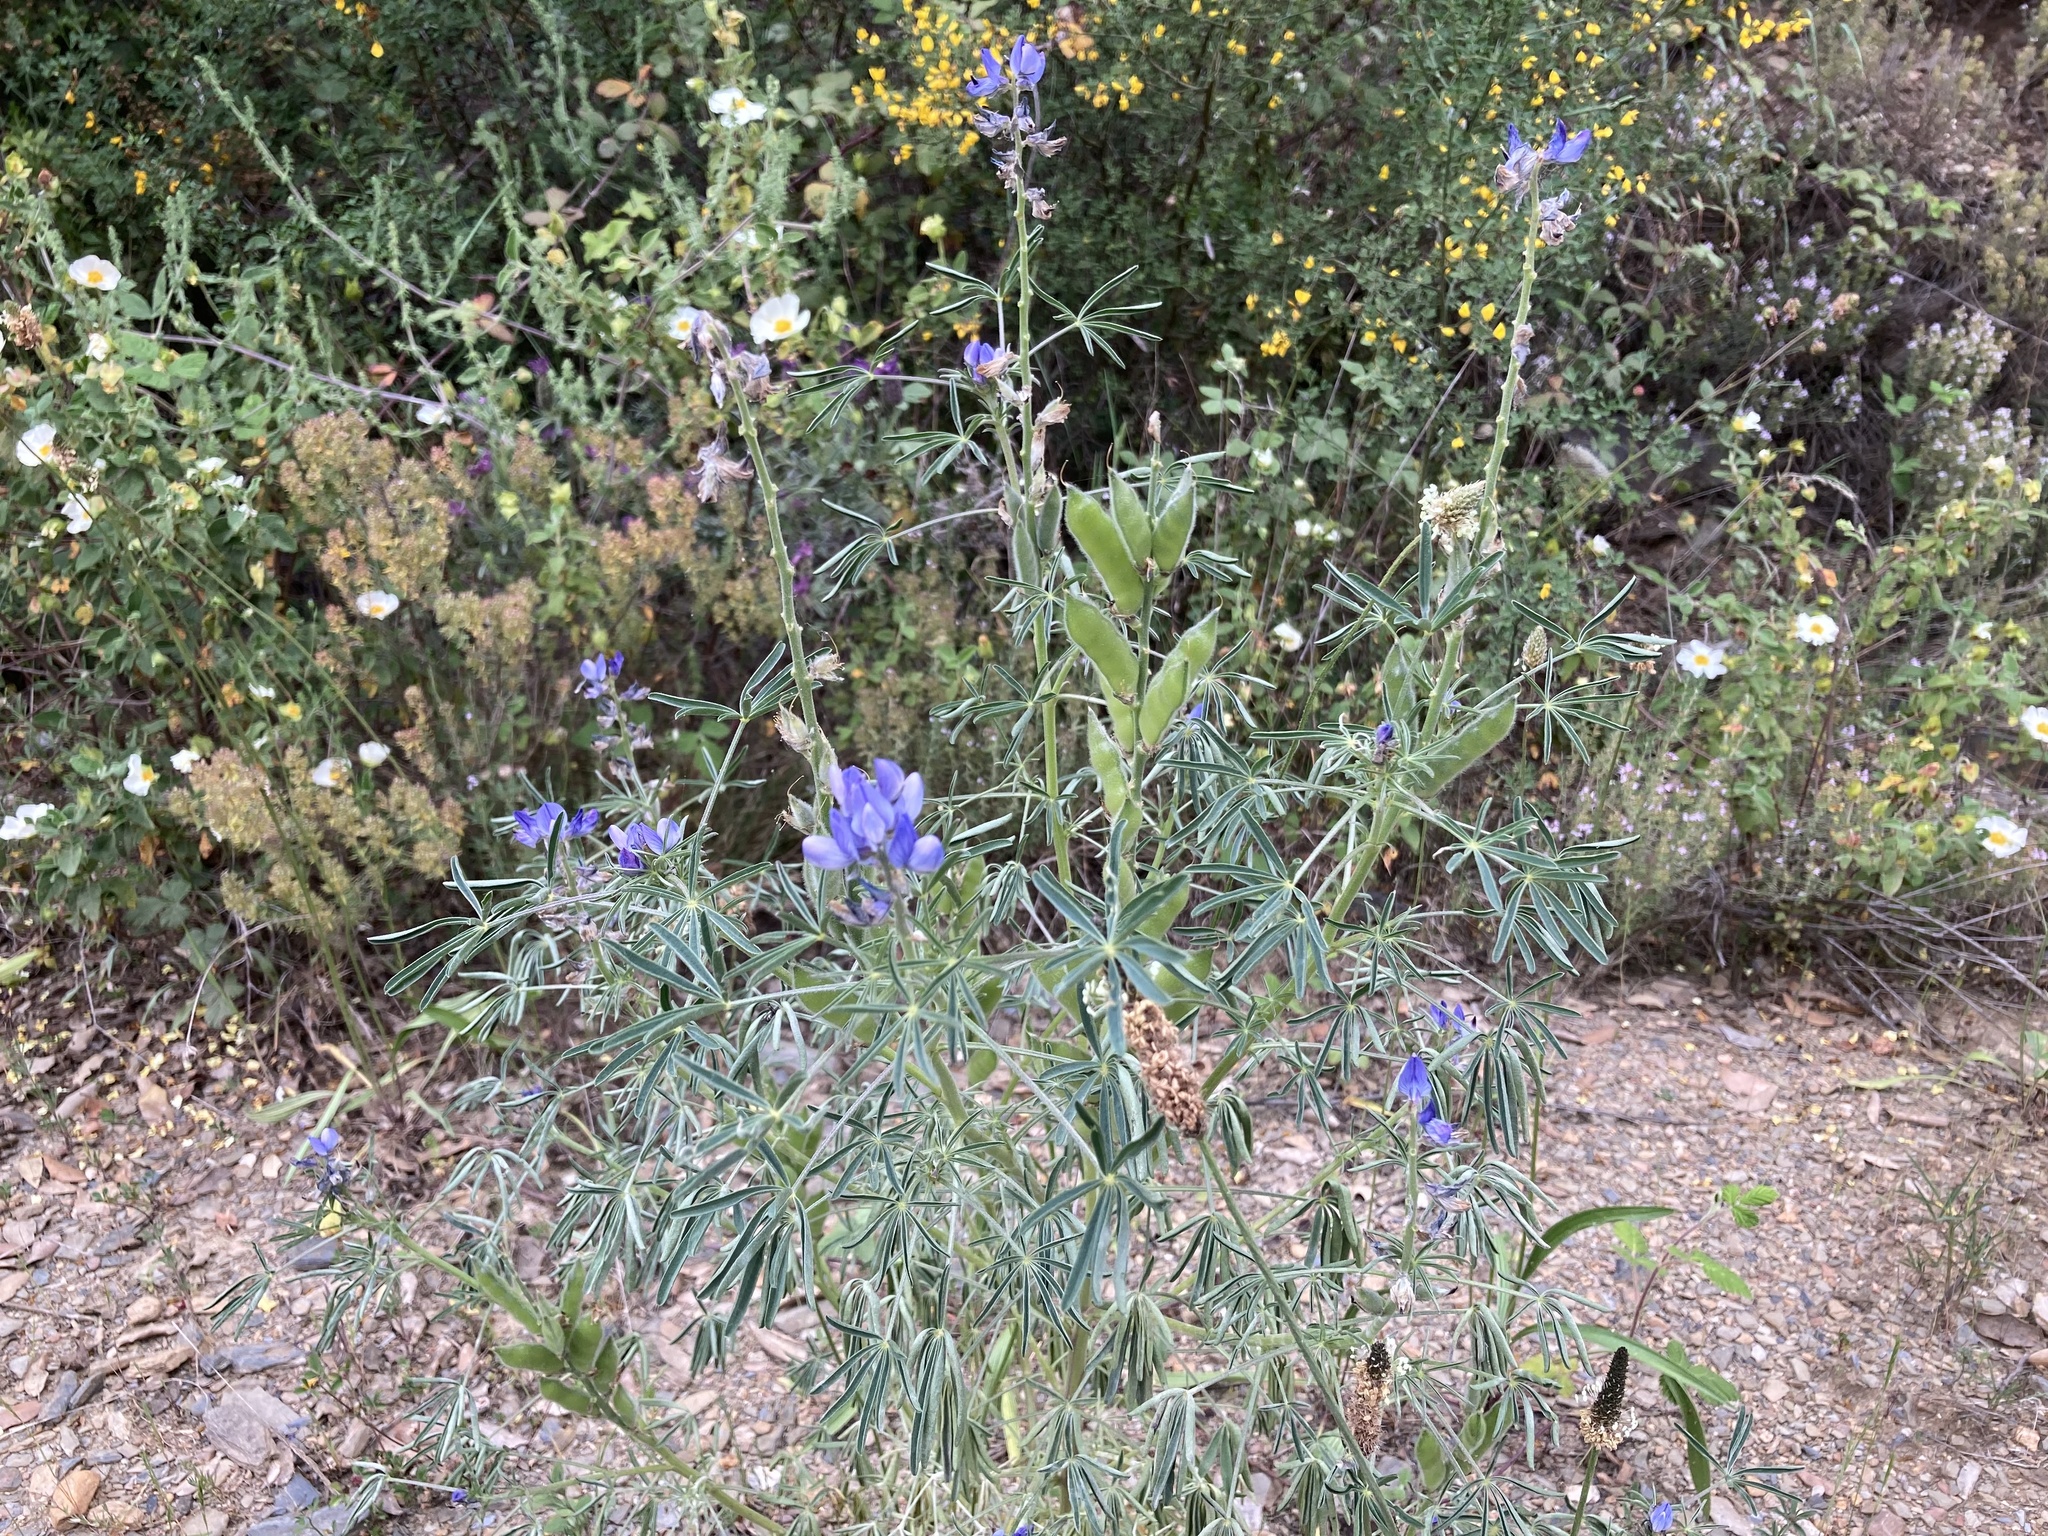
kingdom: Plantae
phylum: Tracheophyta
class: Magnoliopsida
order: Fabales
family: Fabaceae
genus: Lupinus
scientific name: Lupinus angustifolius
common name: Narrow-leaved lupin
